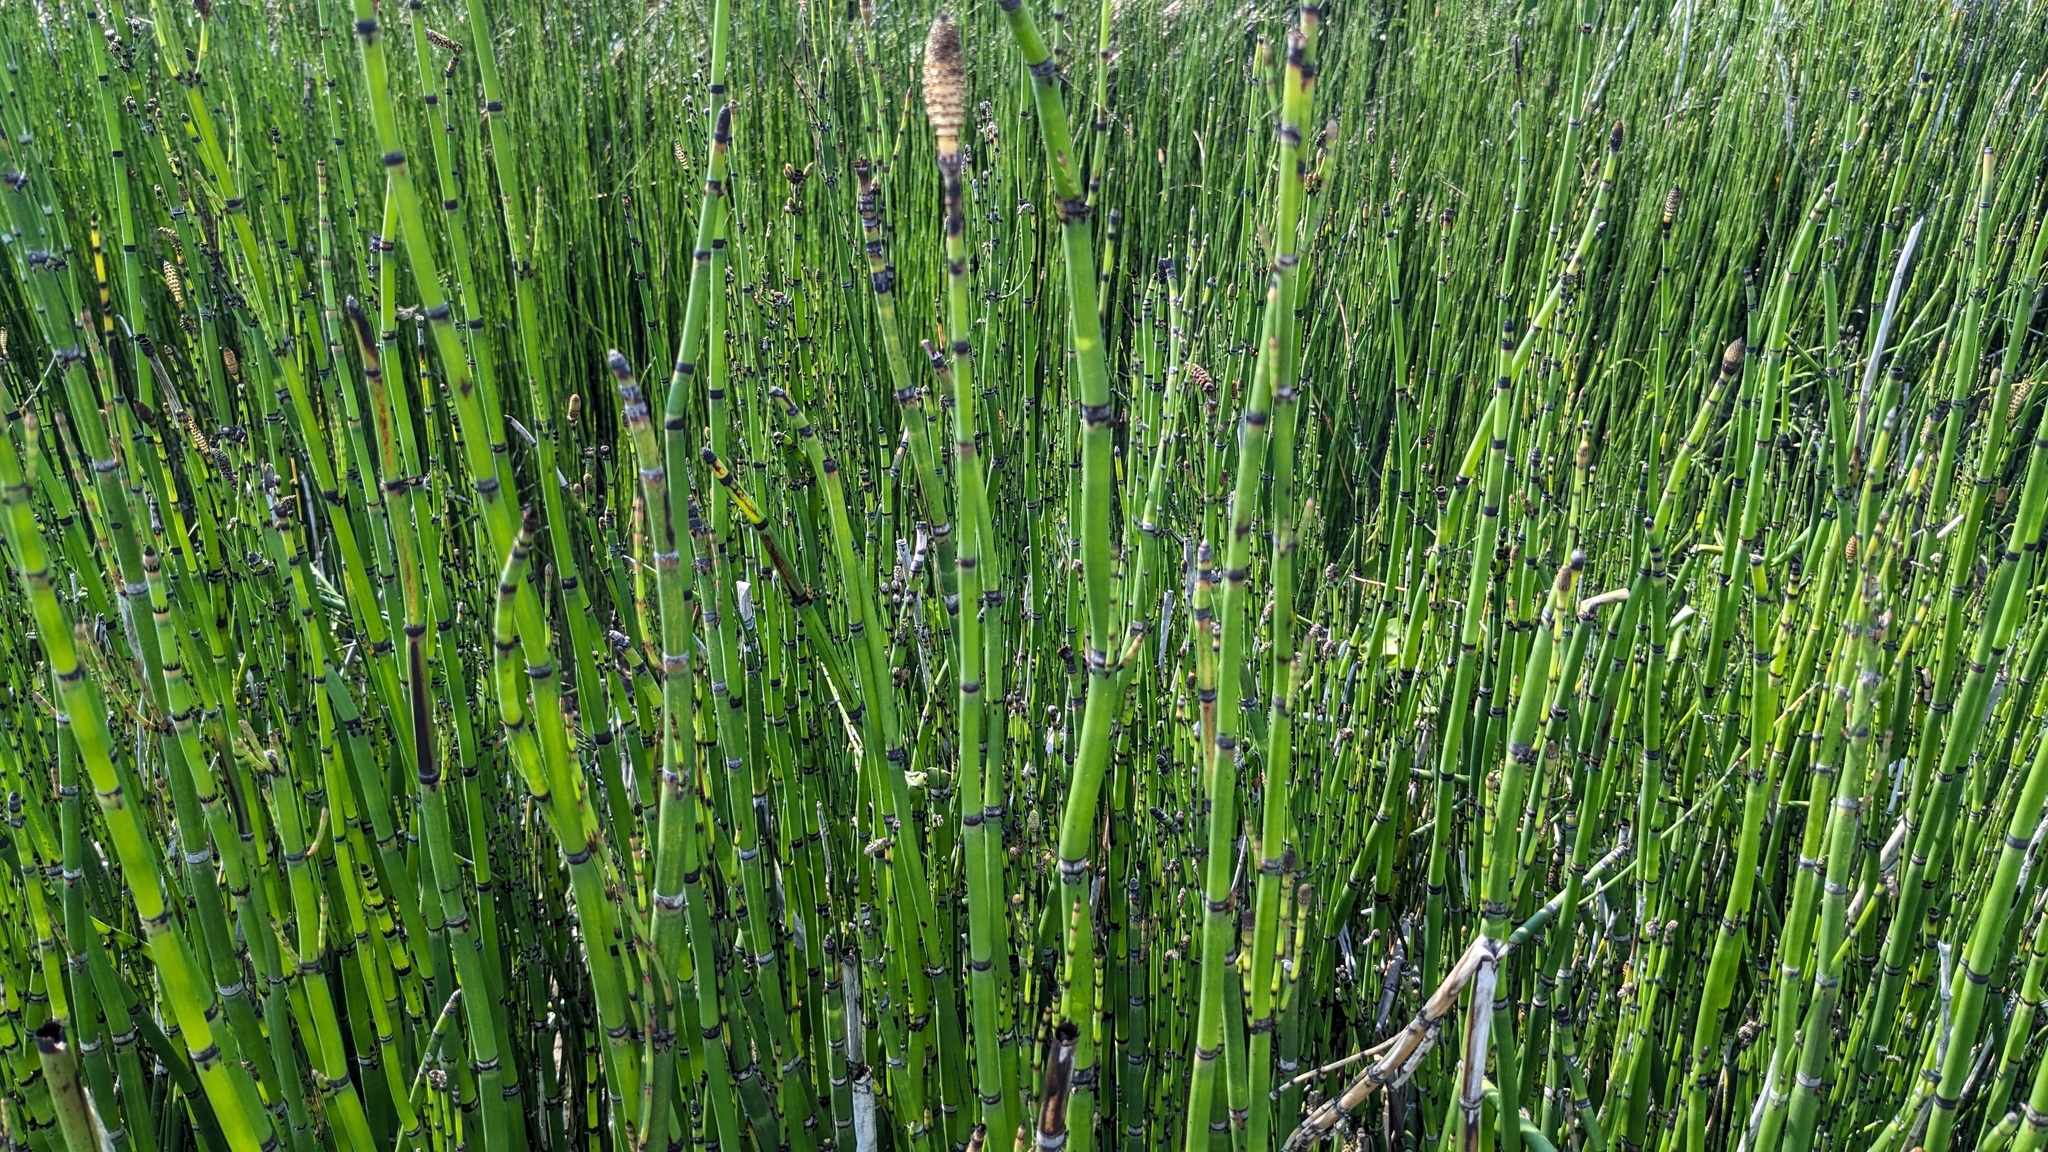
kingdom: Plantae
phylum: Tracheophyta
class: Polypodiopsida
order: Equisetales
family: Equisetaceae
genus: Equisetum
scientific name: Equisetum hyemale
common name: Rough horsetail
